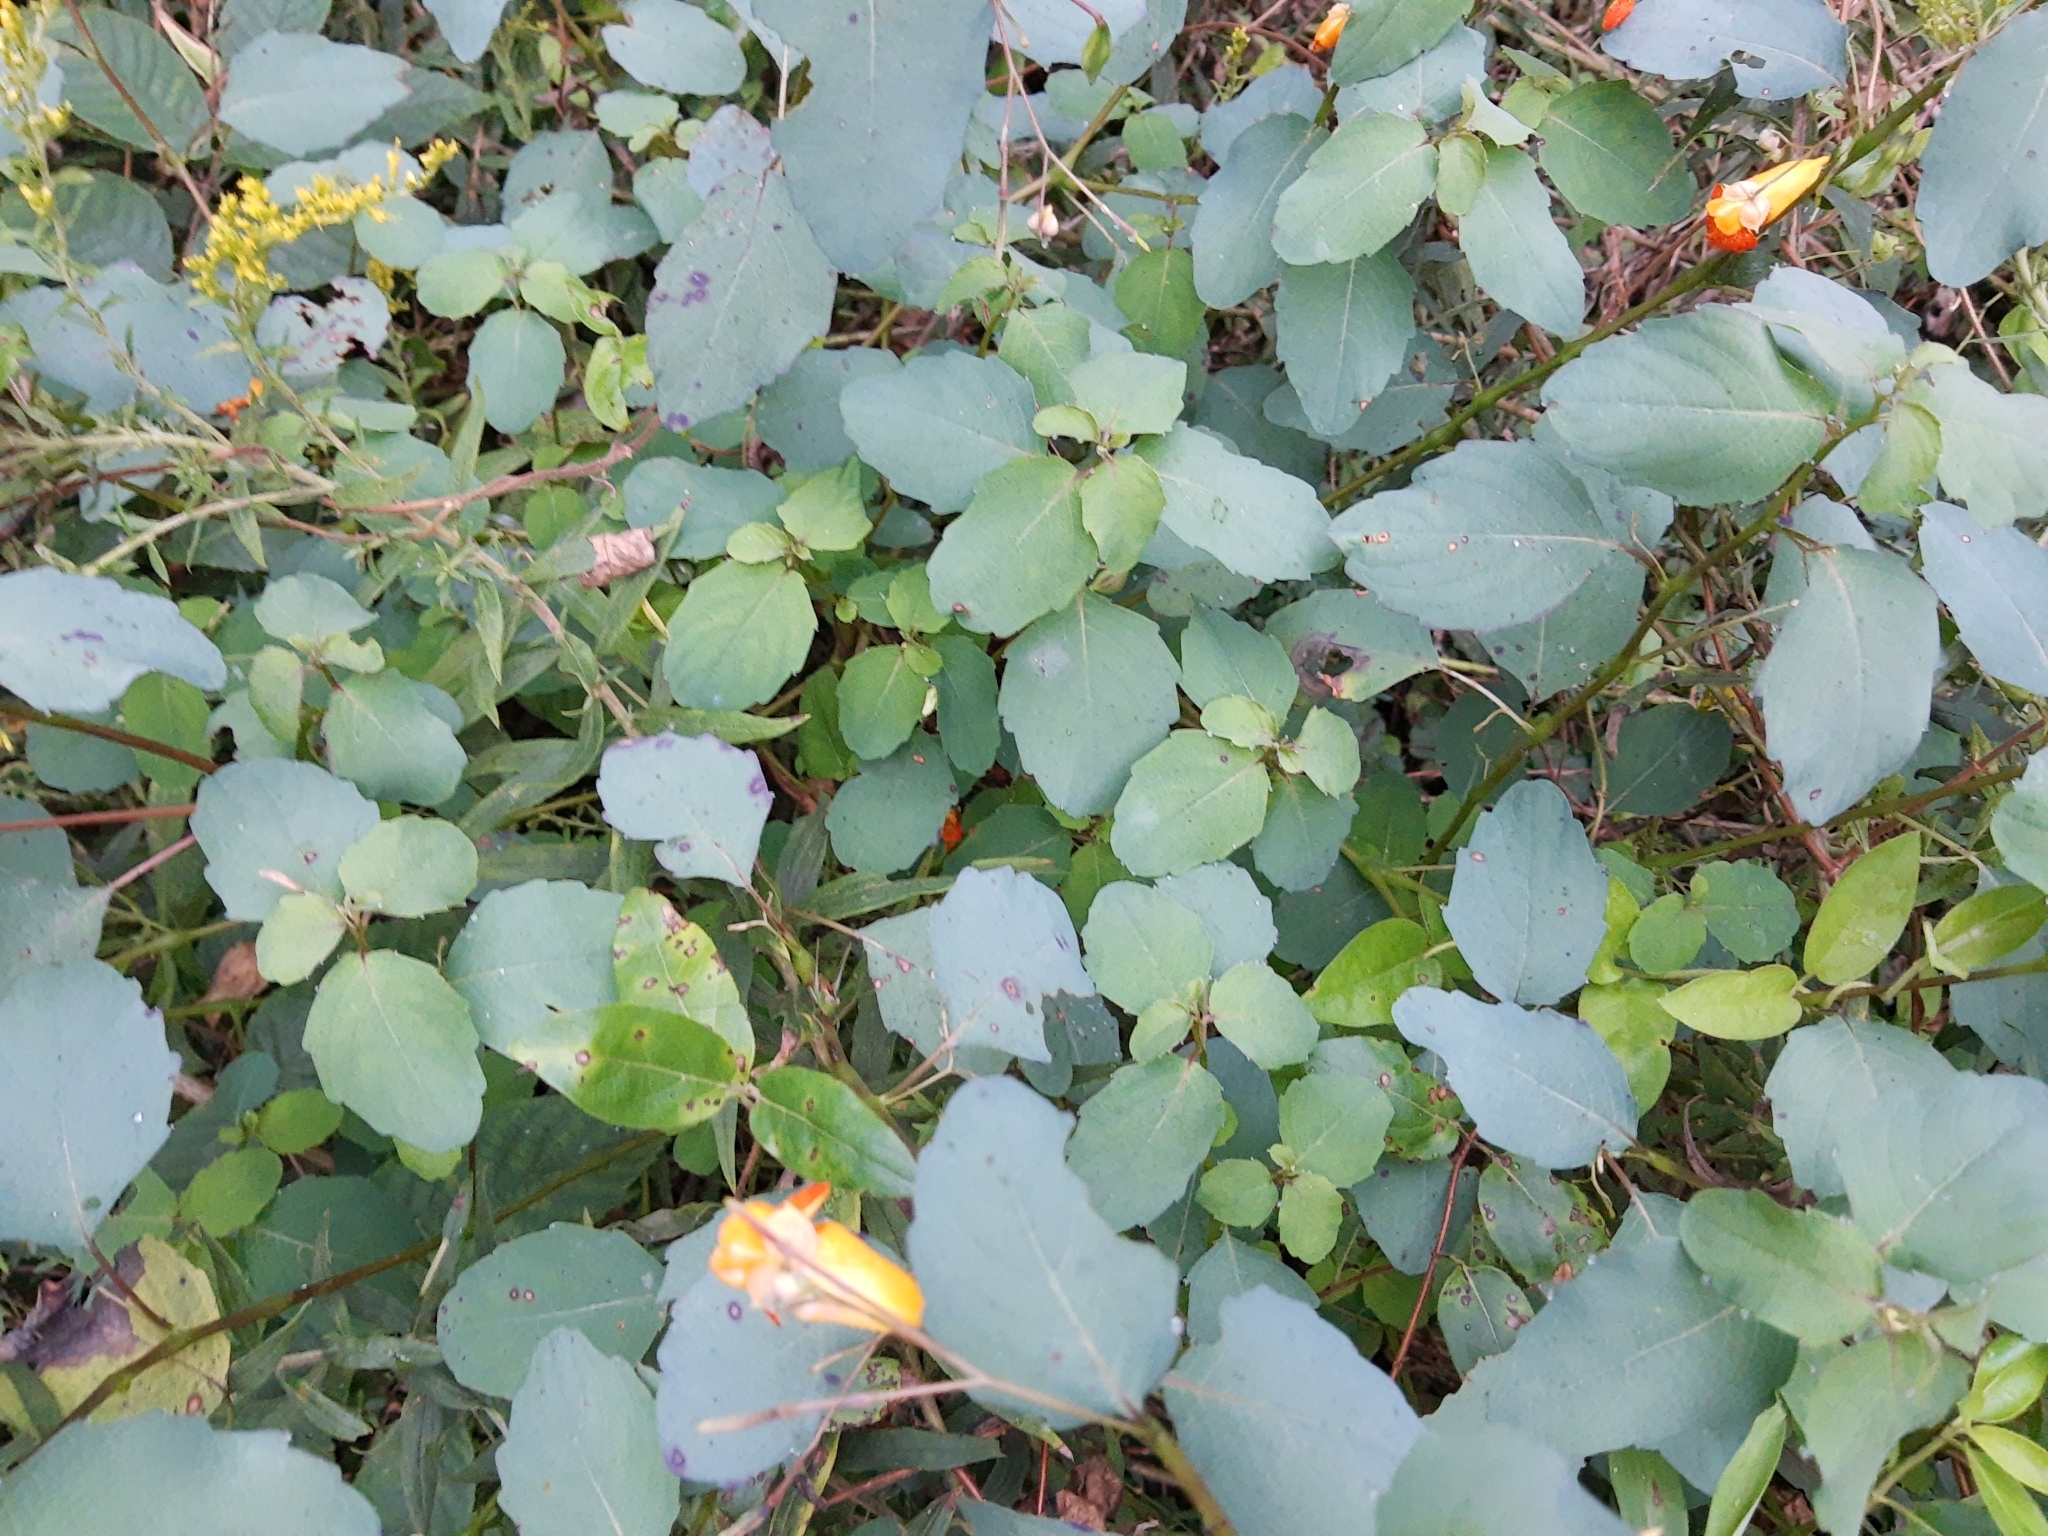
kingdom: Plantae
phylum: Tracheophyta
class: Magnoliopsida
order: Ericales
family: Balsaminaceae
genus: Impatiens
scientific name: Impatiens capensis
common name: Orange balsam
